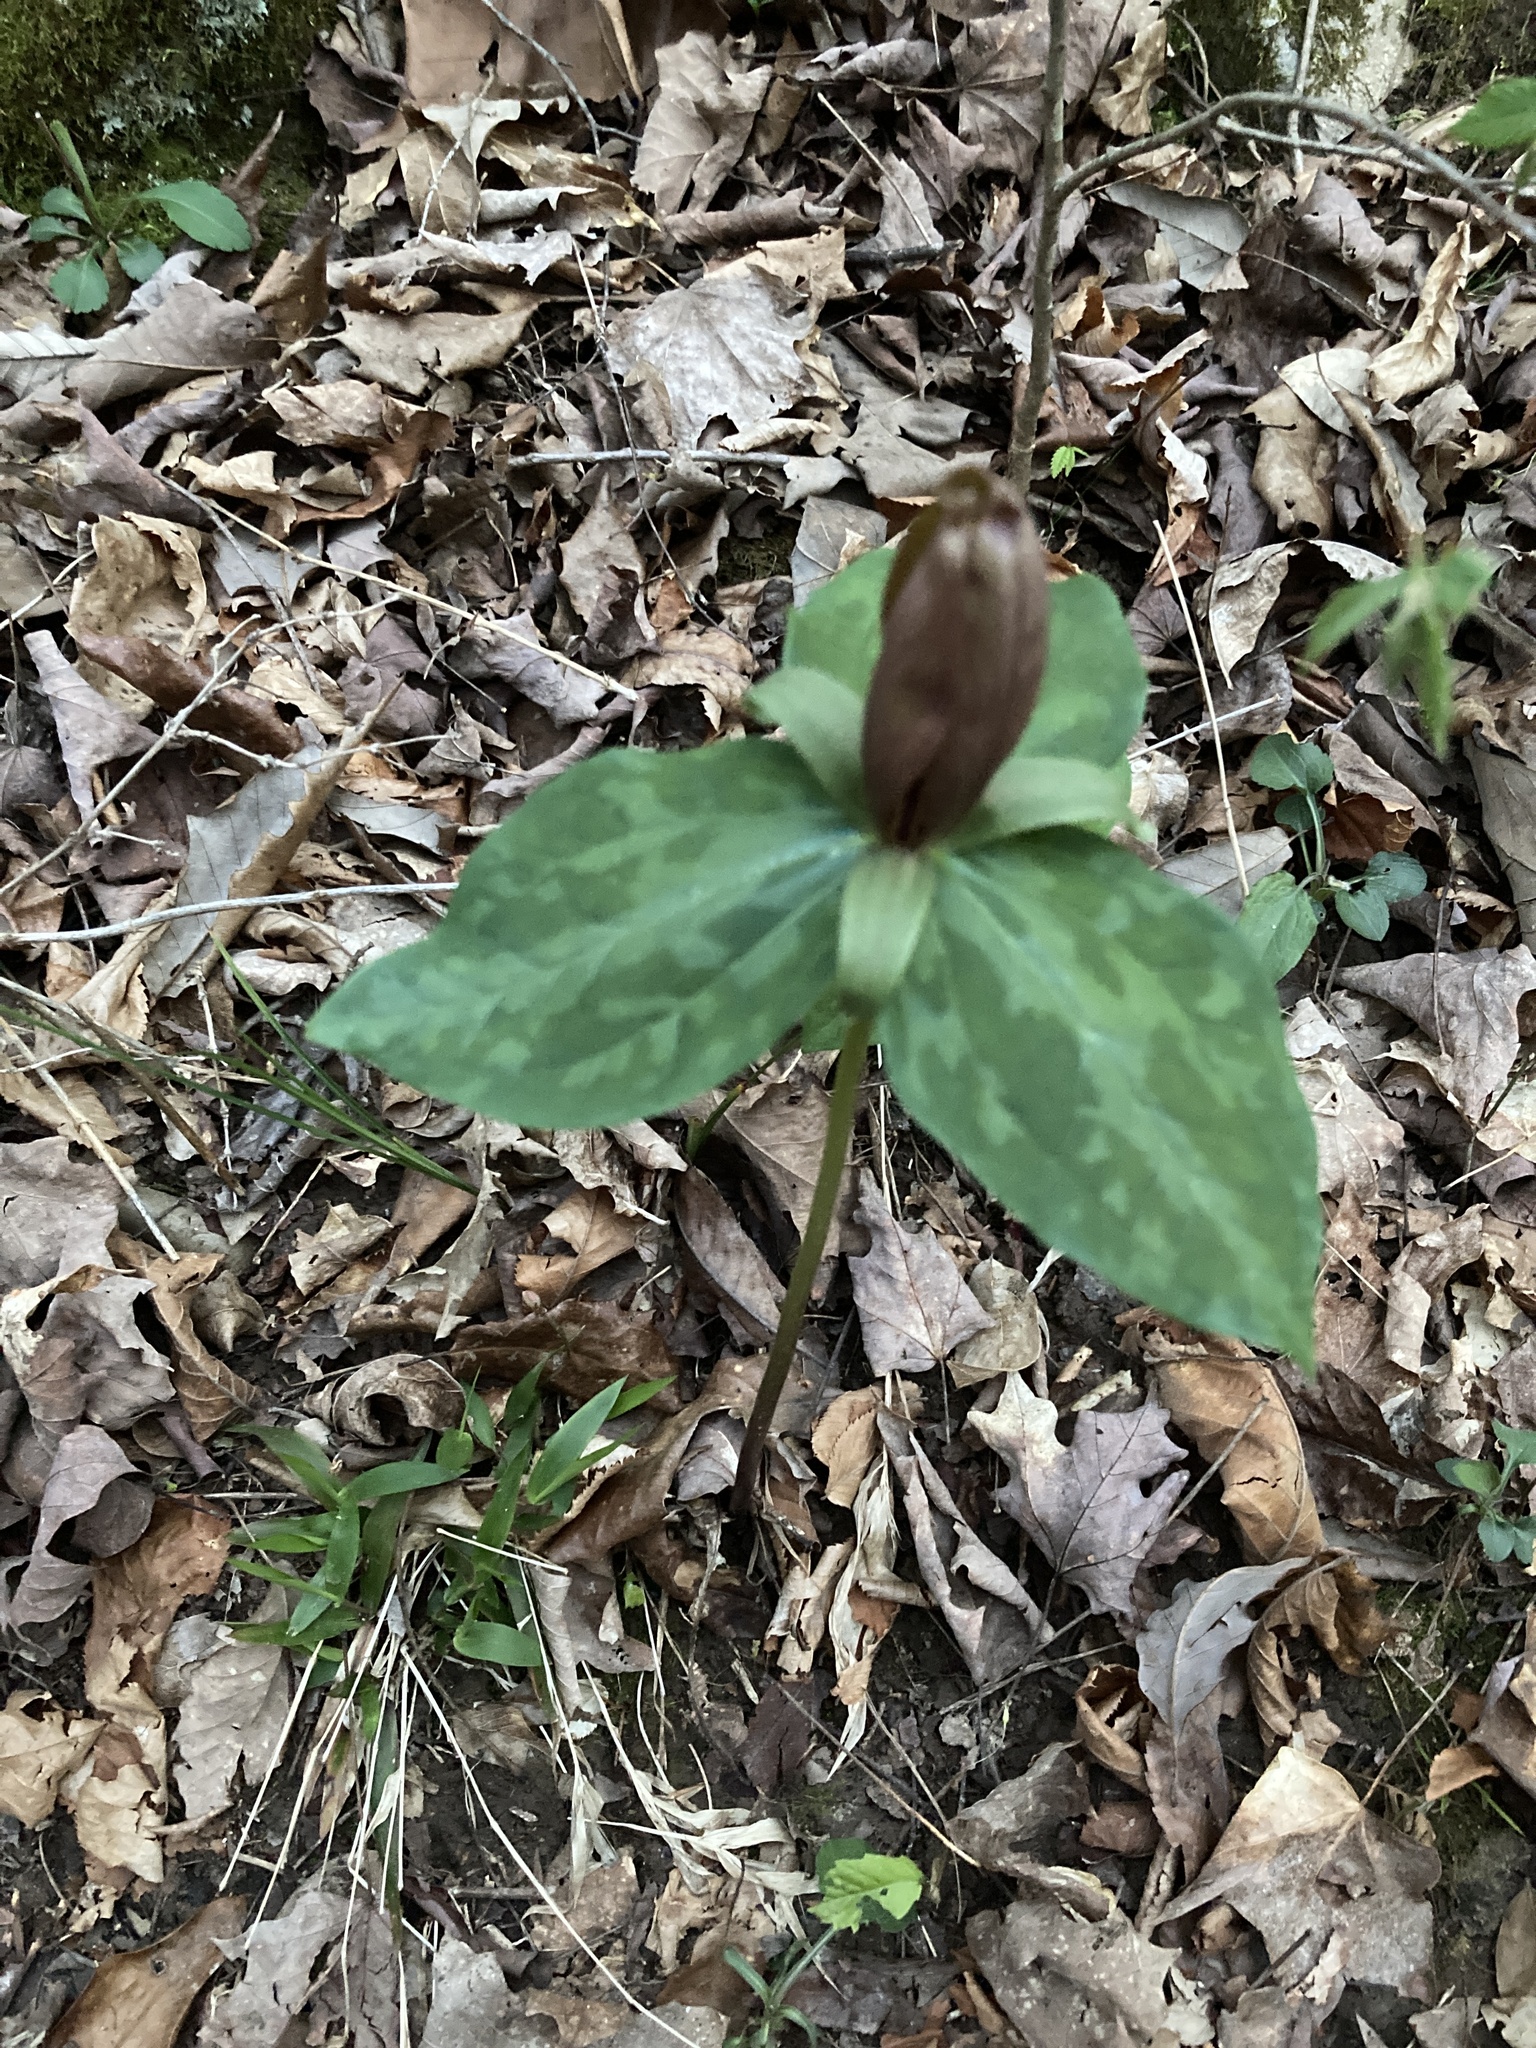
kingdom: Plantae
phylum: Tracheophyta
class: Liliopsida
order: Liliales
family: Melanthiaceae
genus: Trillium
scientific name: Trillium cuneatum
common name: Cuneate trillium
